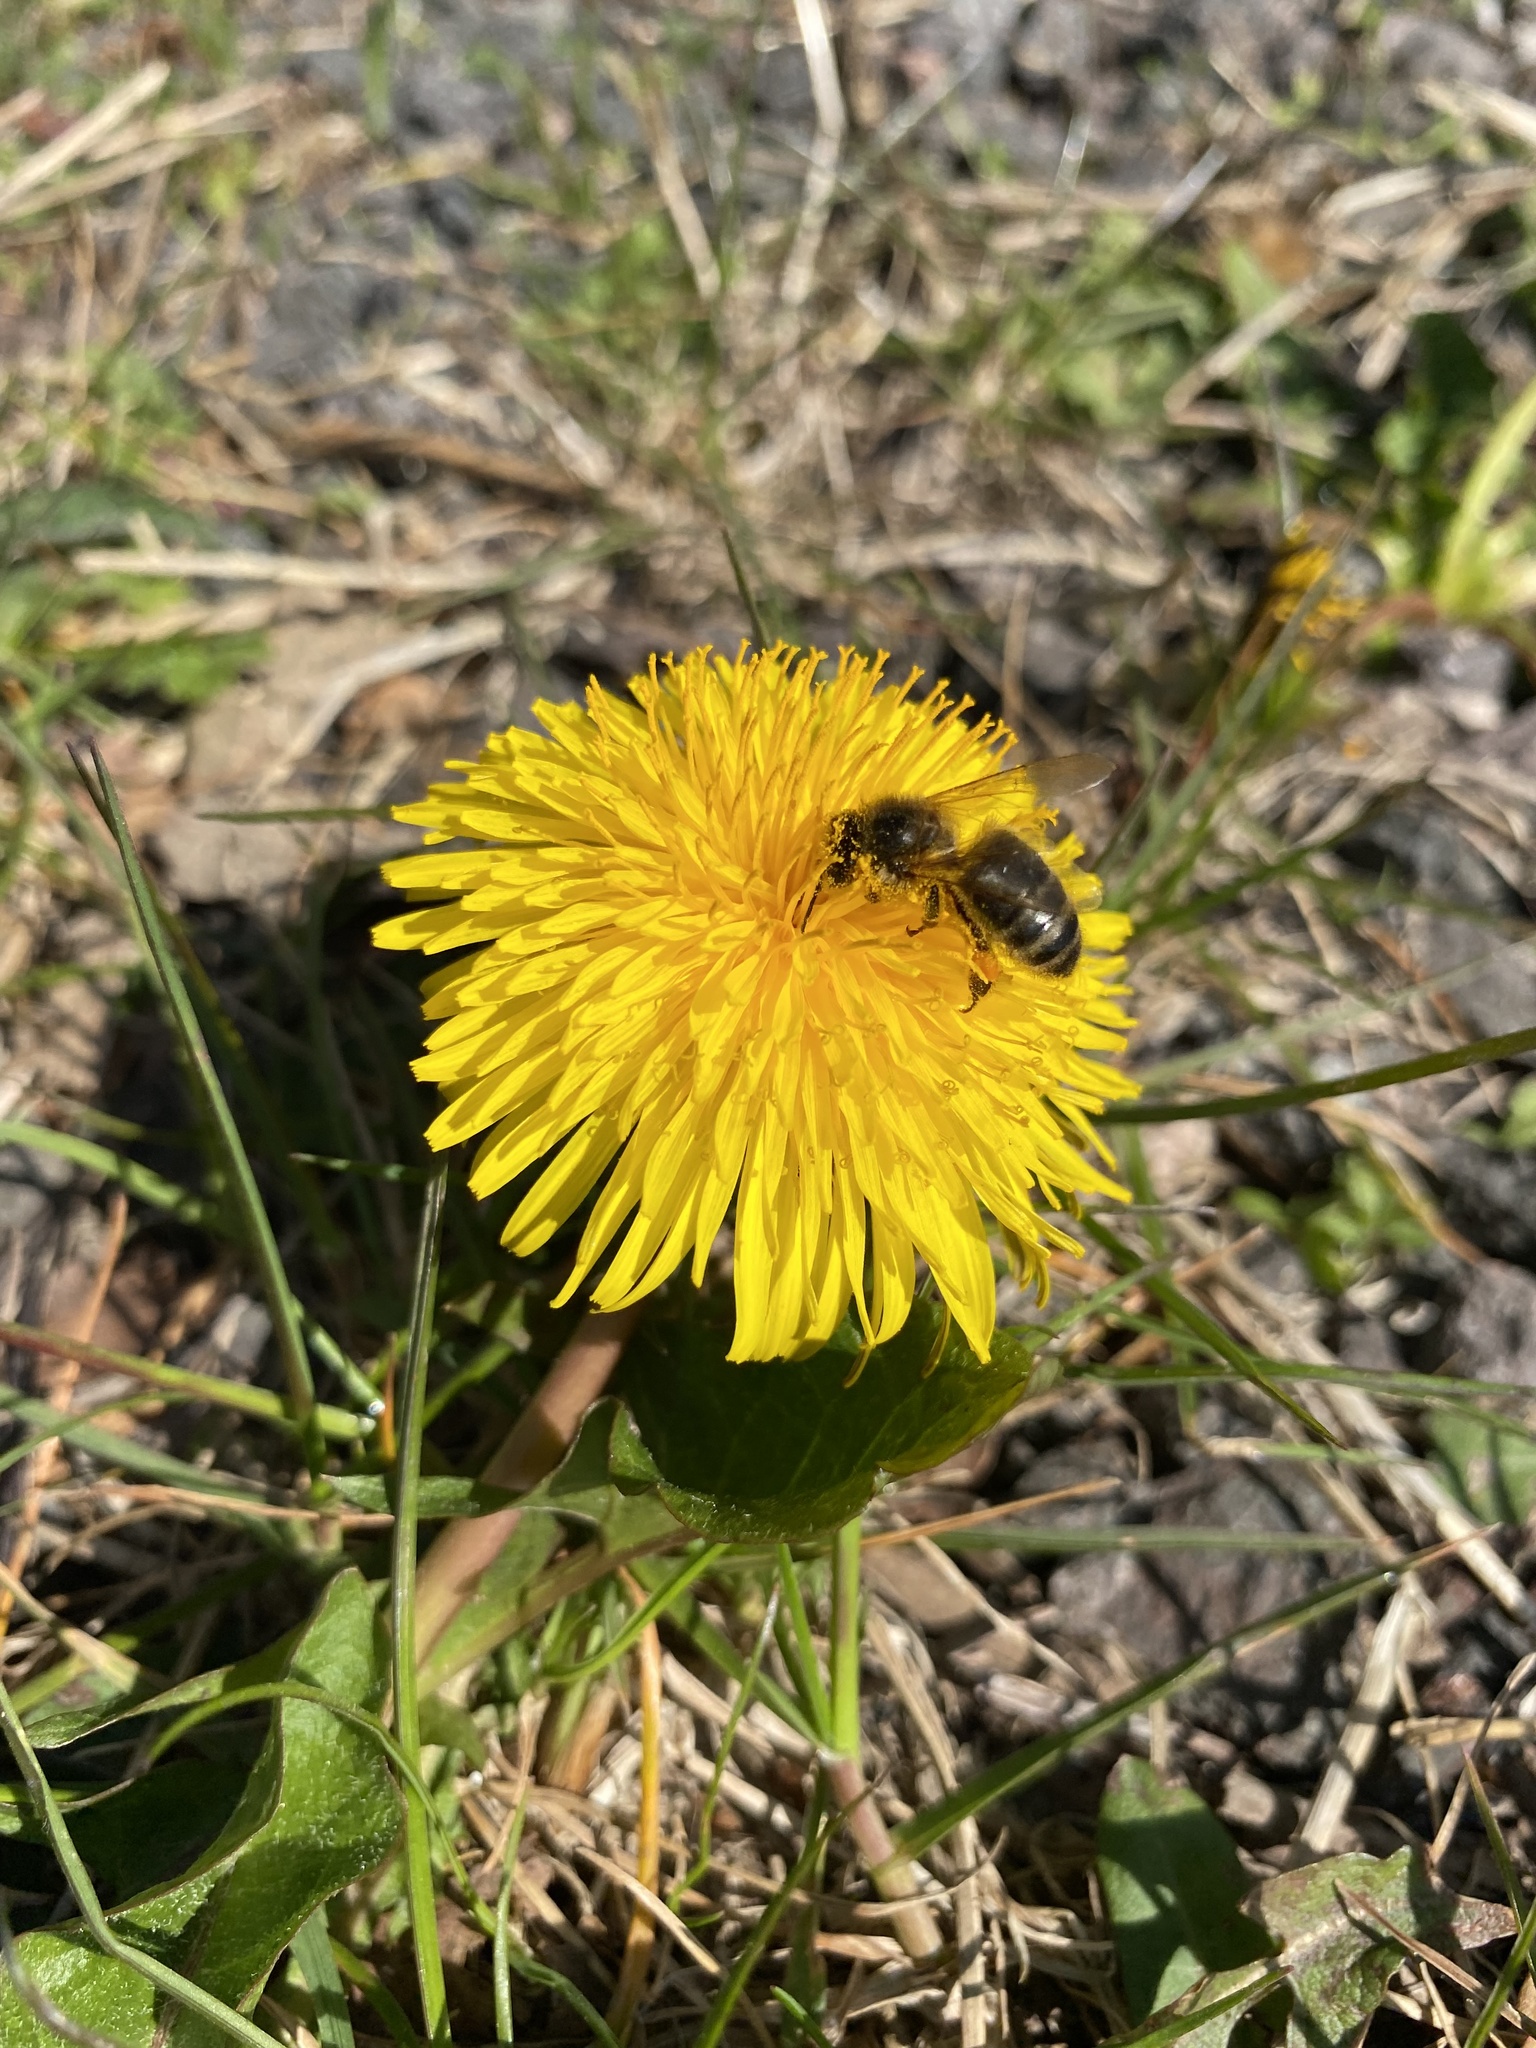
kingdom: Animalia
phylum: Arthropoda
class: Insecta
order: Hymenoptera
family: Apidae
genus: Apis
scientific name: Apis mellifera
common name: Honey bee
